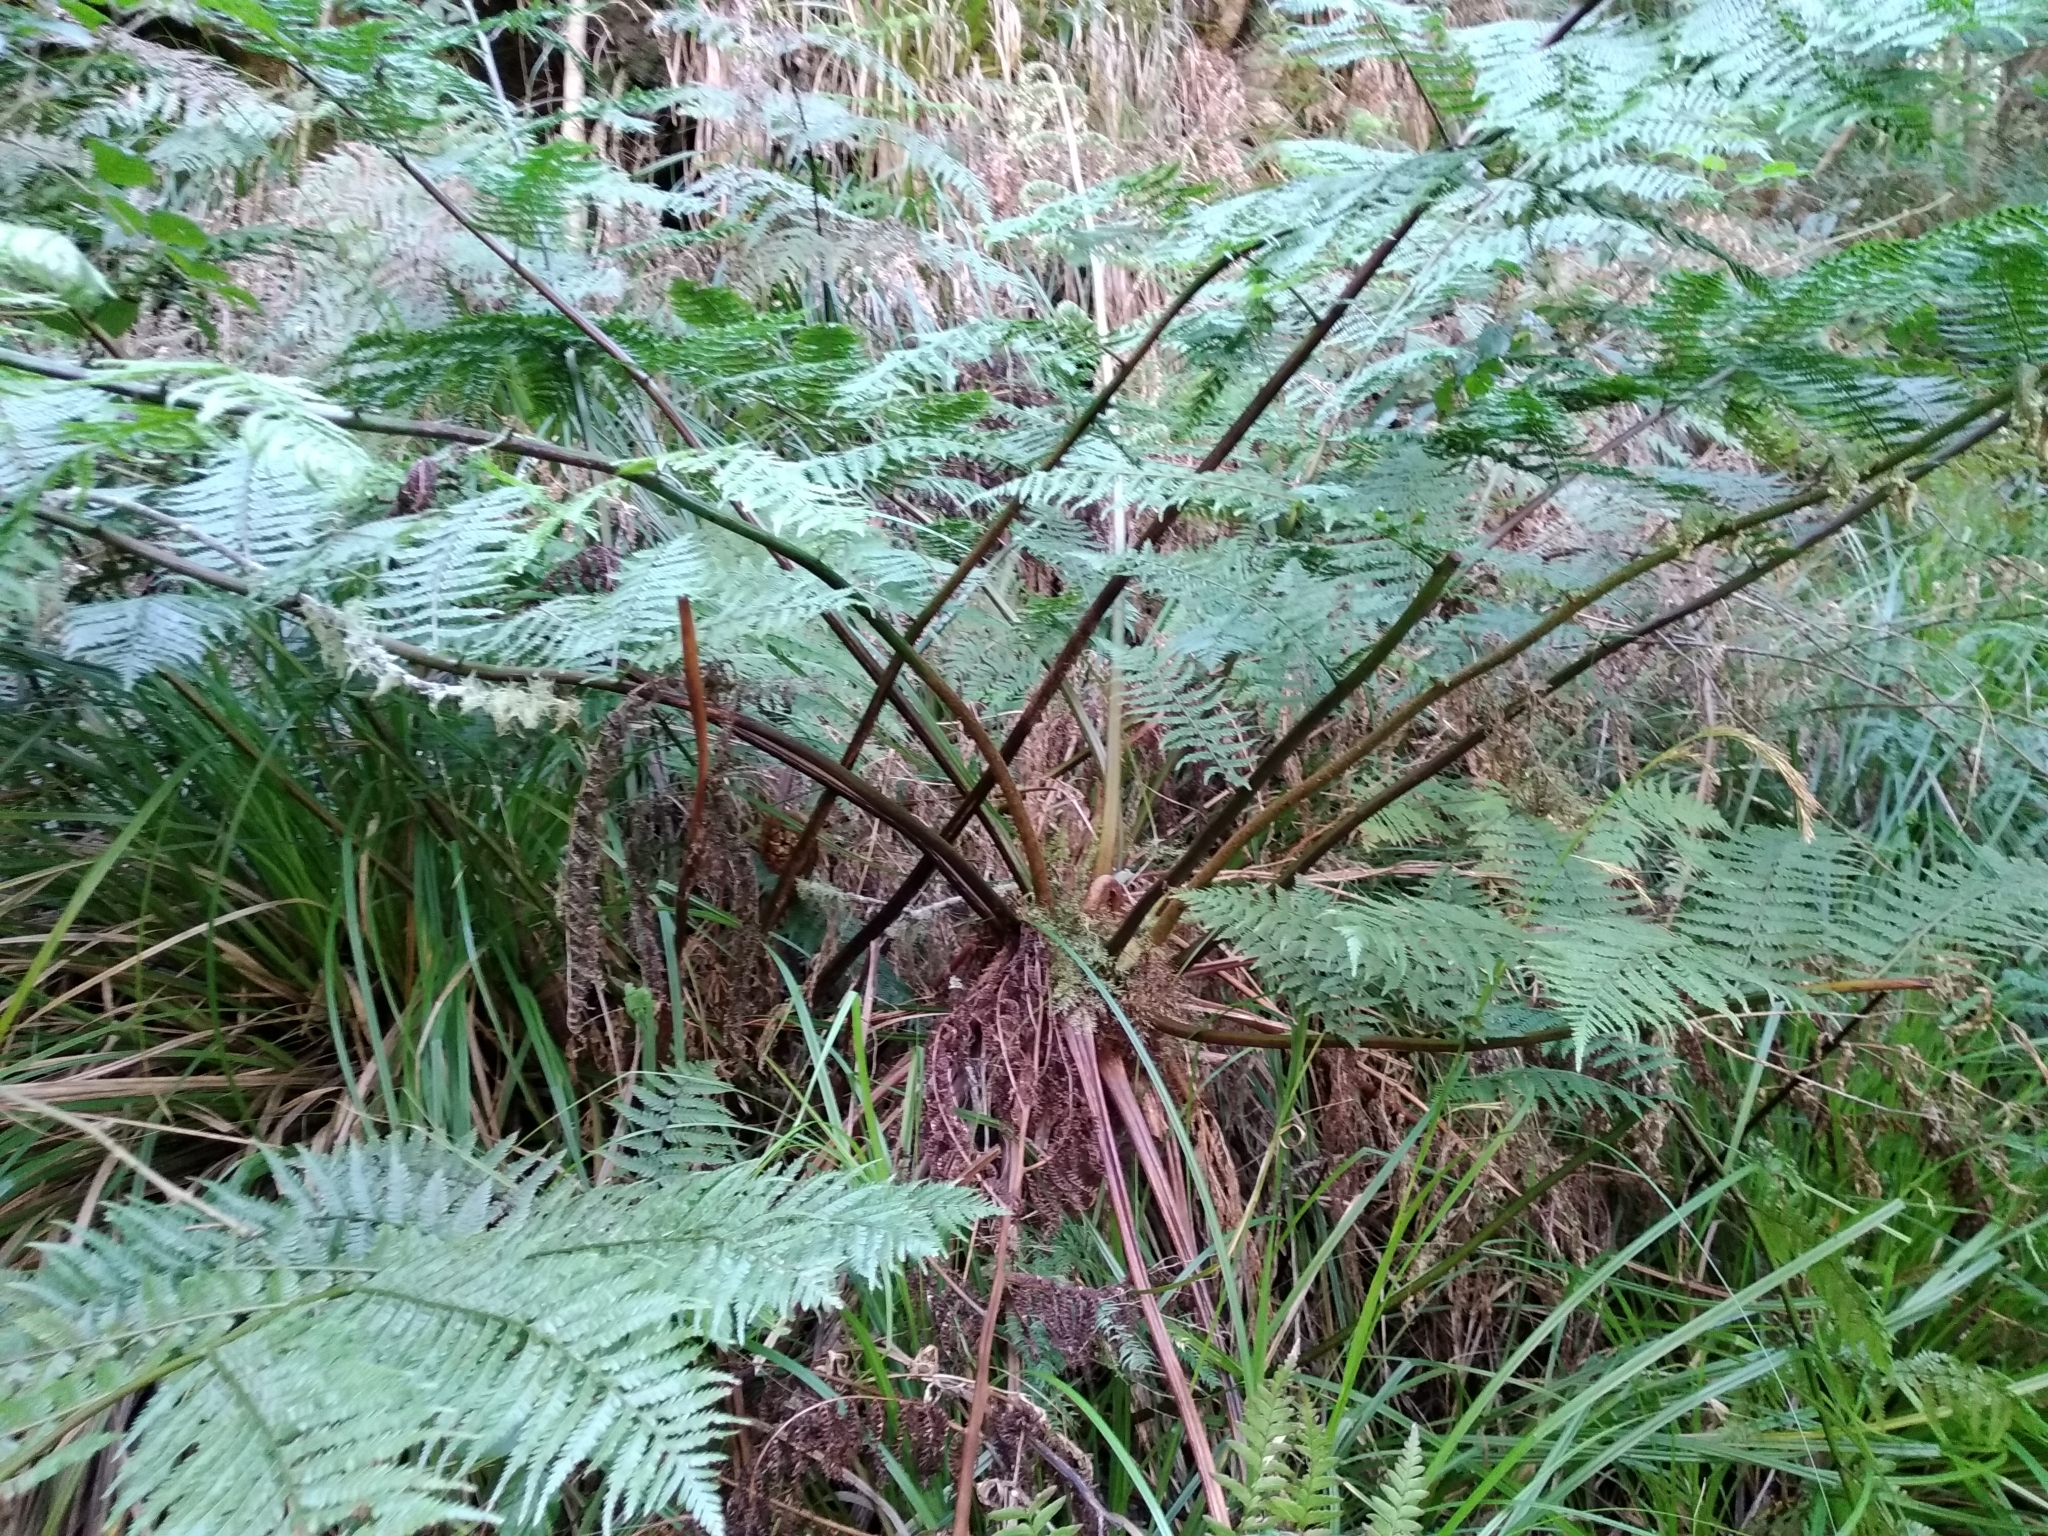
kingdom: Plantae
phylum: Tracheophyta
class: Polypodiopsida
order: Cyatheales
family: Cyatheaceae
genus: Gymnosphaera
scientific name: Gymnosphaera capensis
